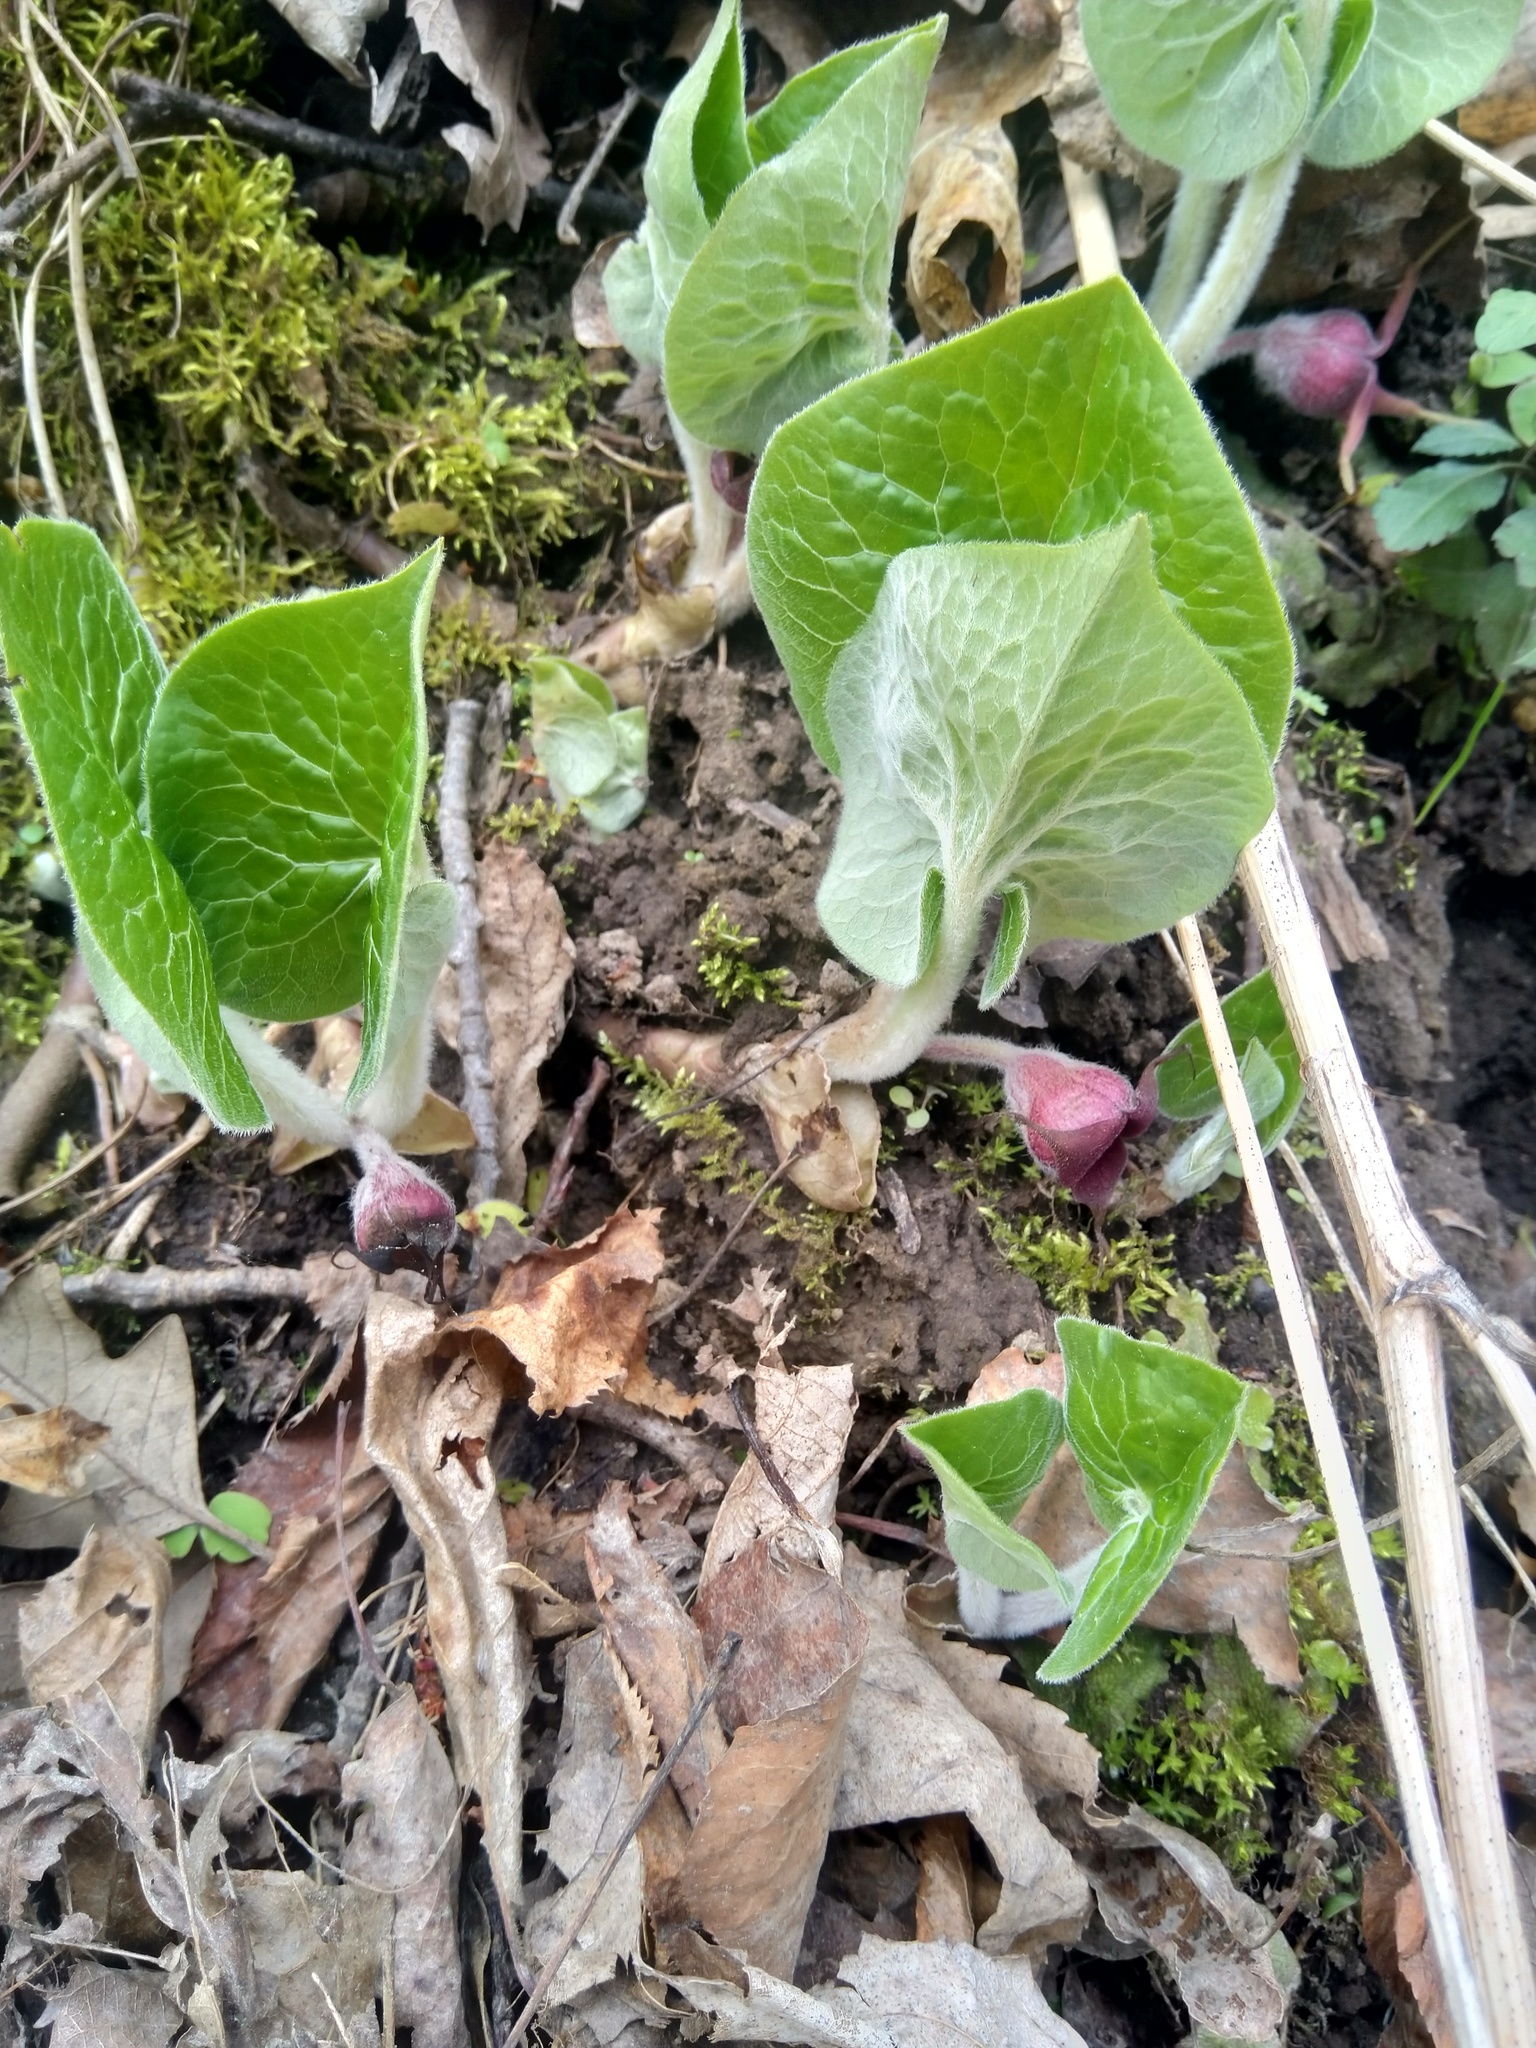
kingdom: Plantae
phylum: Tracheophyta
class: Magnoliopsida
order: Piperales
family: Aristolochiaceae
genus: Asarum
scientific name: Asarum canadense
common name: Wild ginger
